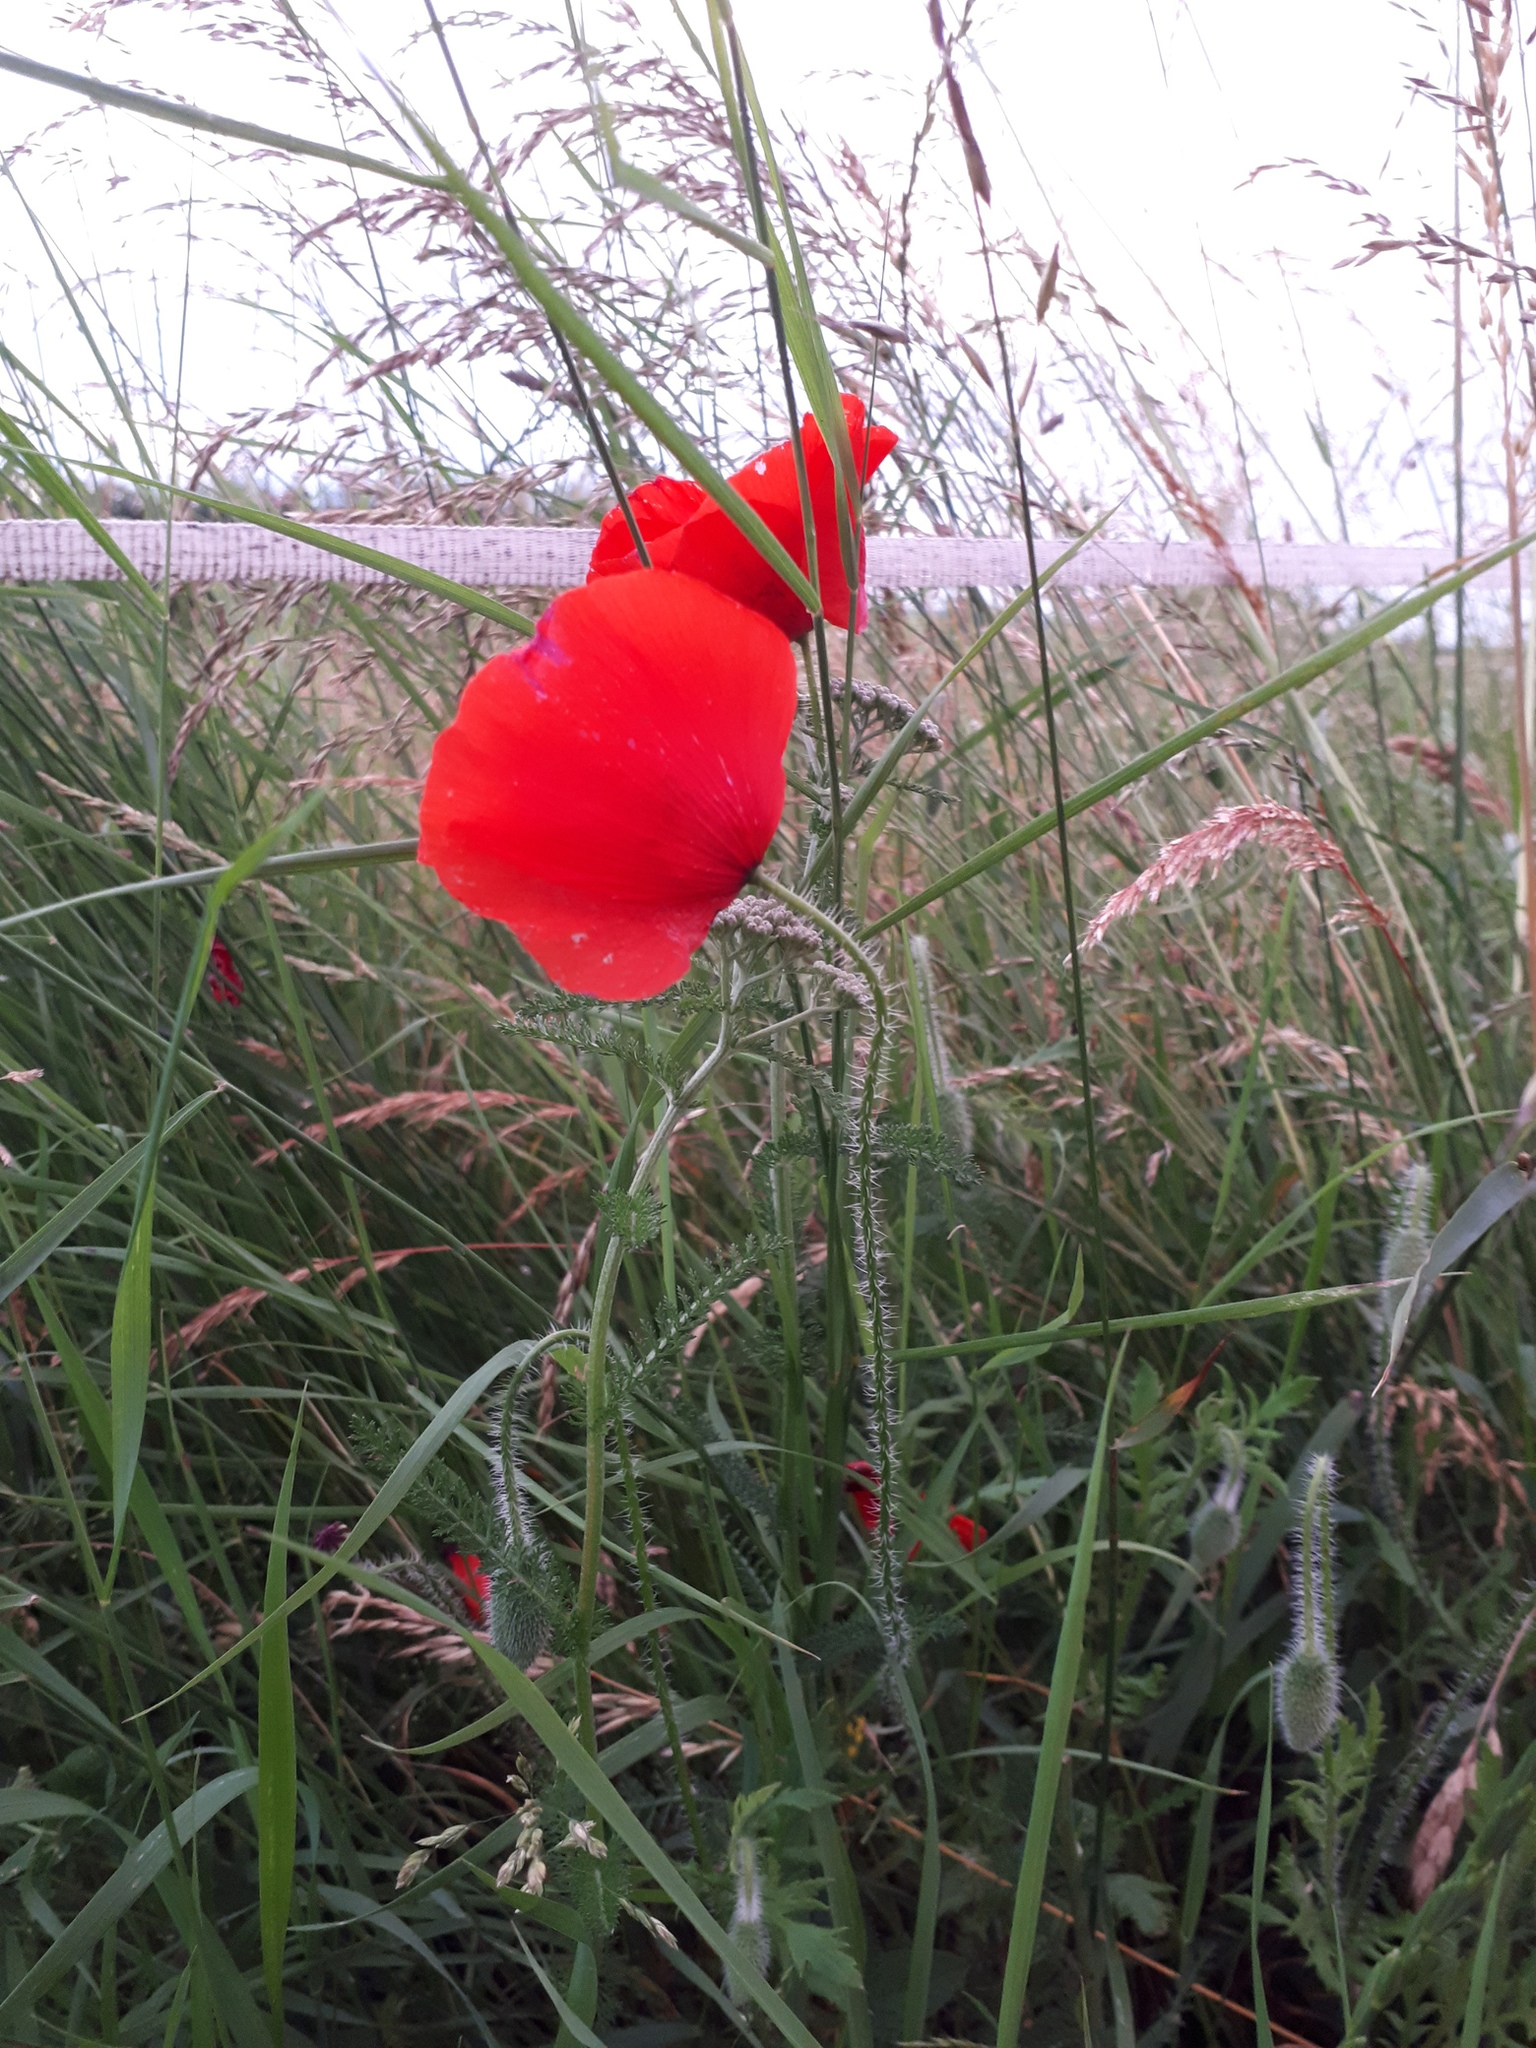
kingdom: Plantae
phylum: Tracheophyta
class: Magnoliopsida
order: Ranunculales
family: Papaveraceae
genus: Papaver
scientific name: Papaver rhoeas
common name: Corn poppy
